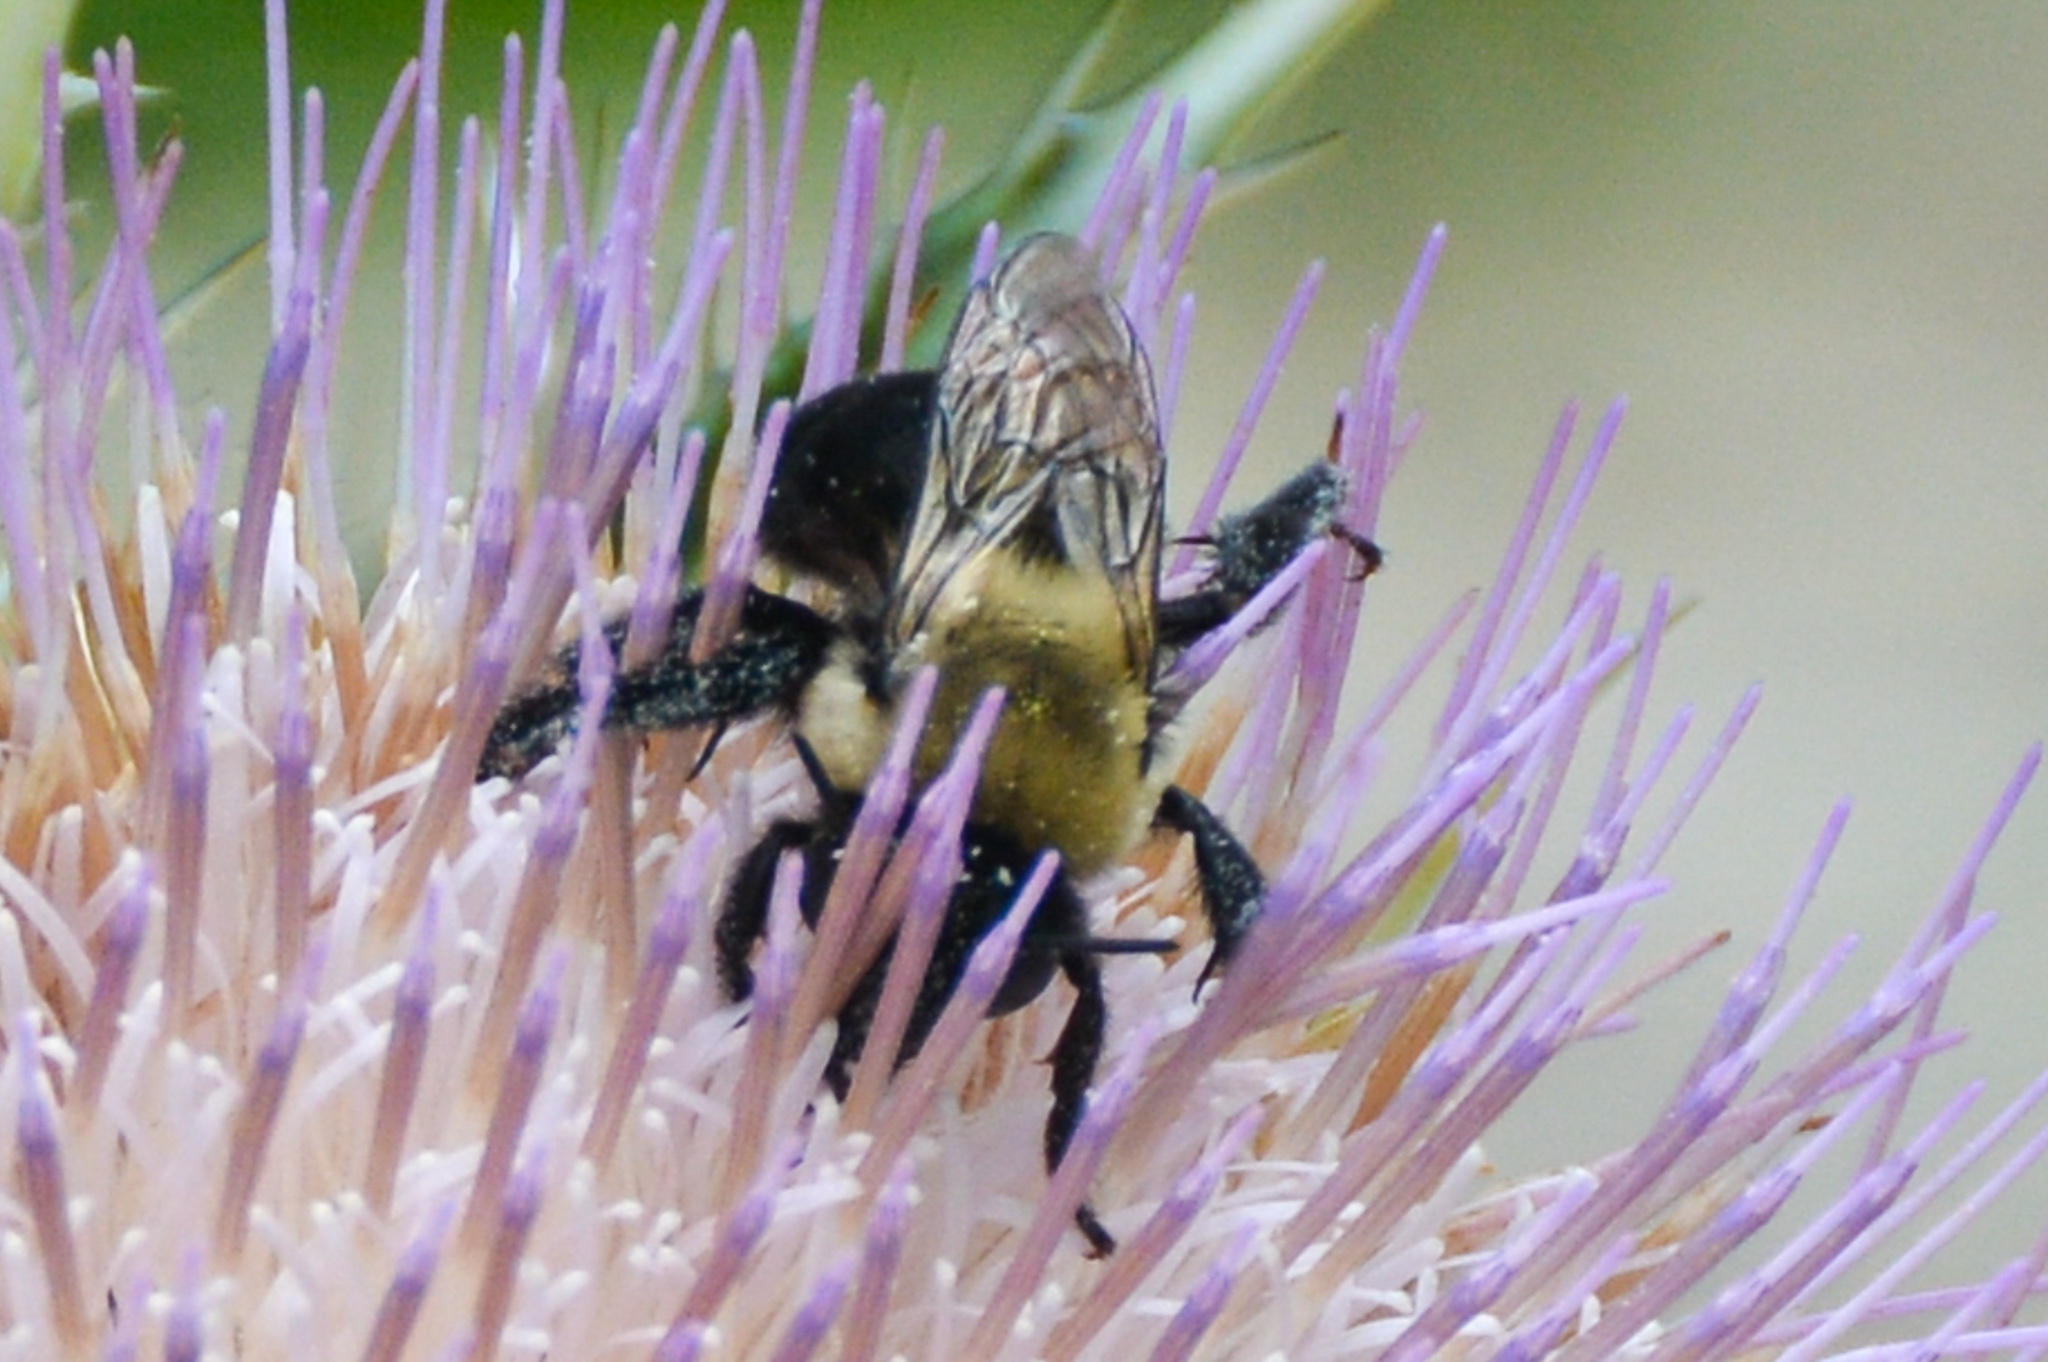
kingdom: Animalia
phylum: Arthropoda
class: Insecta
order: Hymenoptera
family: Apidae
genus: Anthophora
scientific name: Anthophora abrupta
